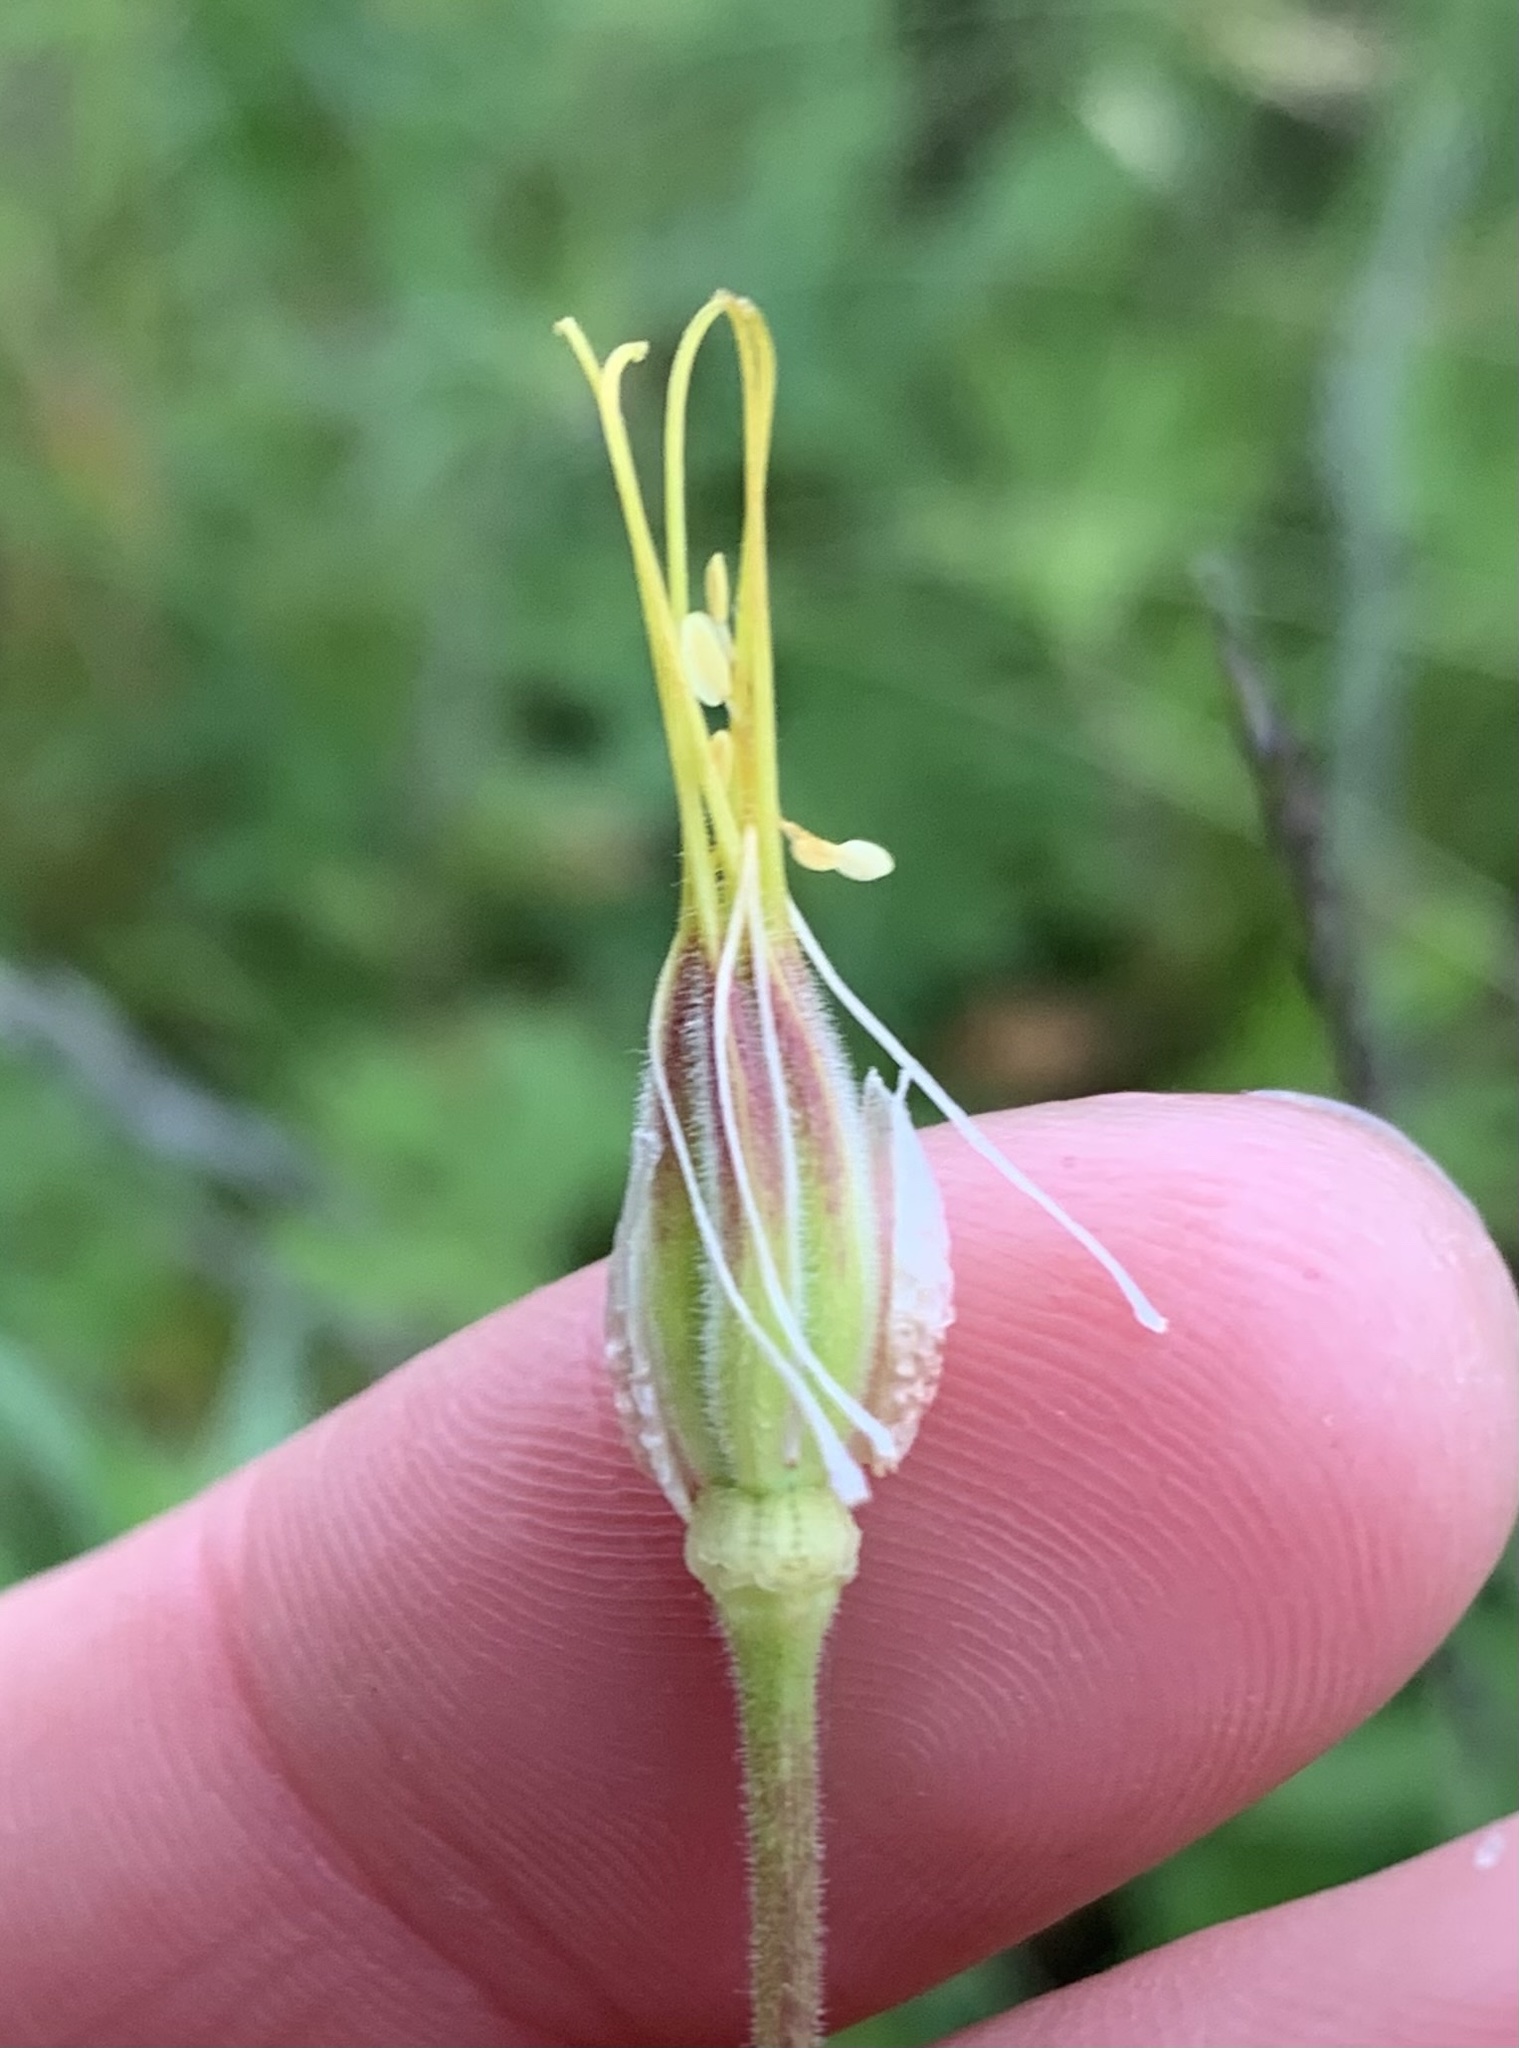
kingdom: Plantae
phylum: Tracheophyta
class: Magnoliopsida
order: Ranunculales
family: Ranunculaceae
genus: Aquilegia
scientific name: Aquilegia formosa
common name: Sitka columbine
